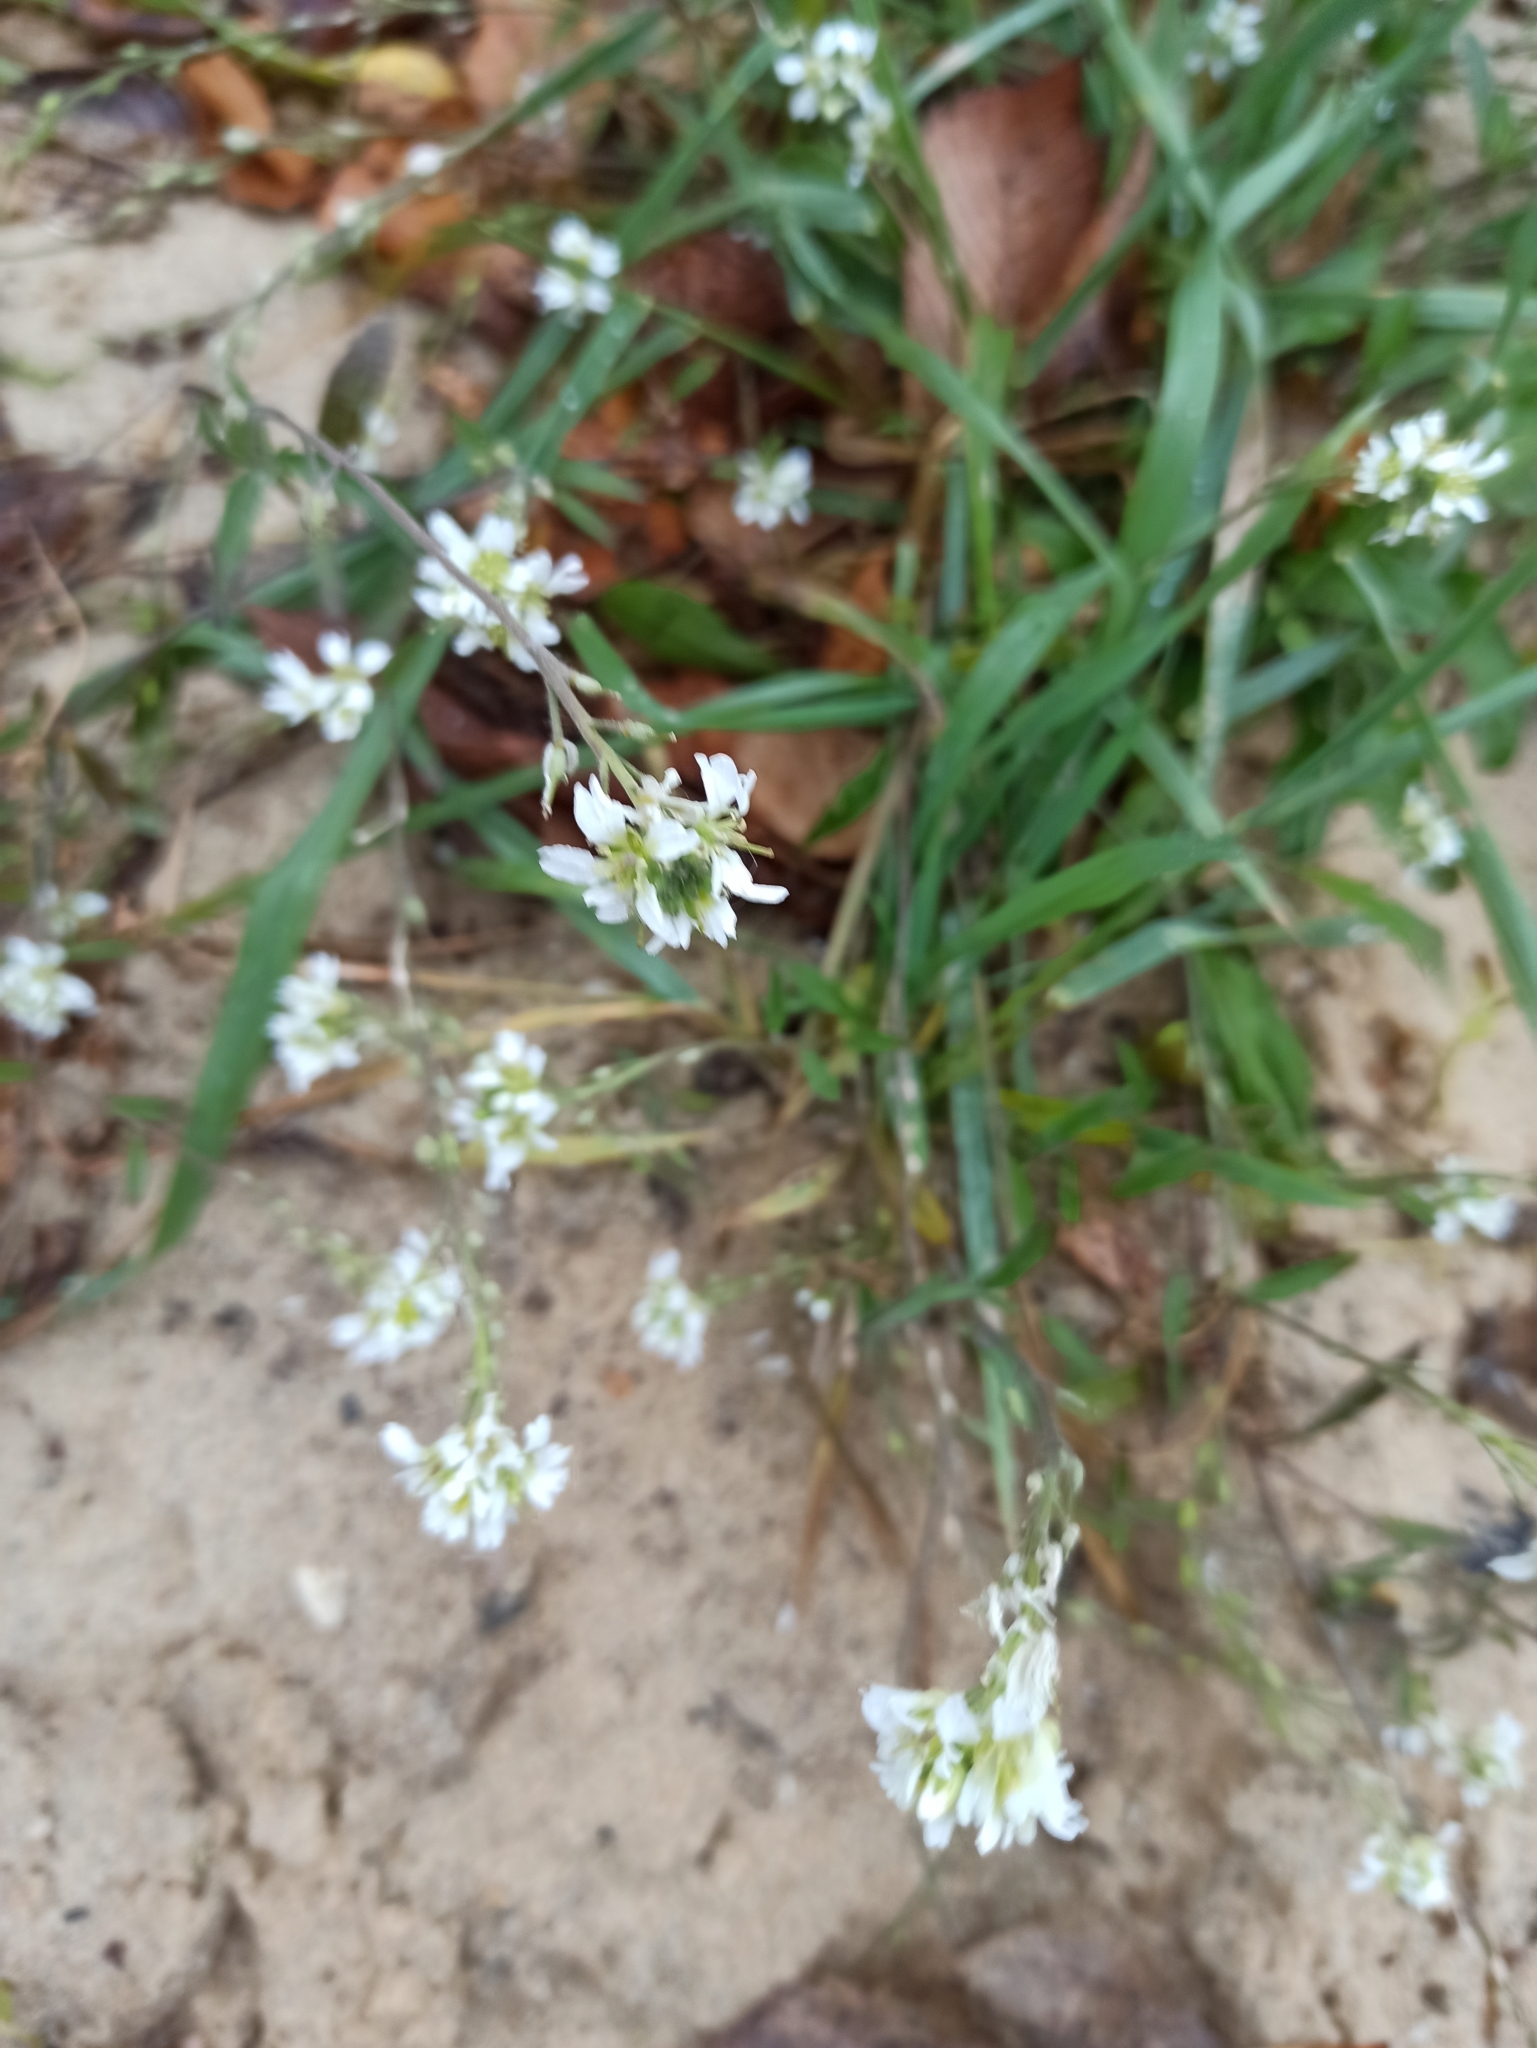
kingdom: Plantae
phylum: Tracheophyta
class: Magnoliopsida
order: Brassicales
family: Brassicaceae
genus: Berteroa
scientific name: Berteroa incana
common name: Hoary alison
